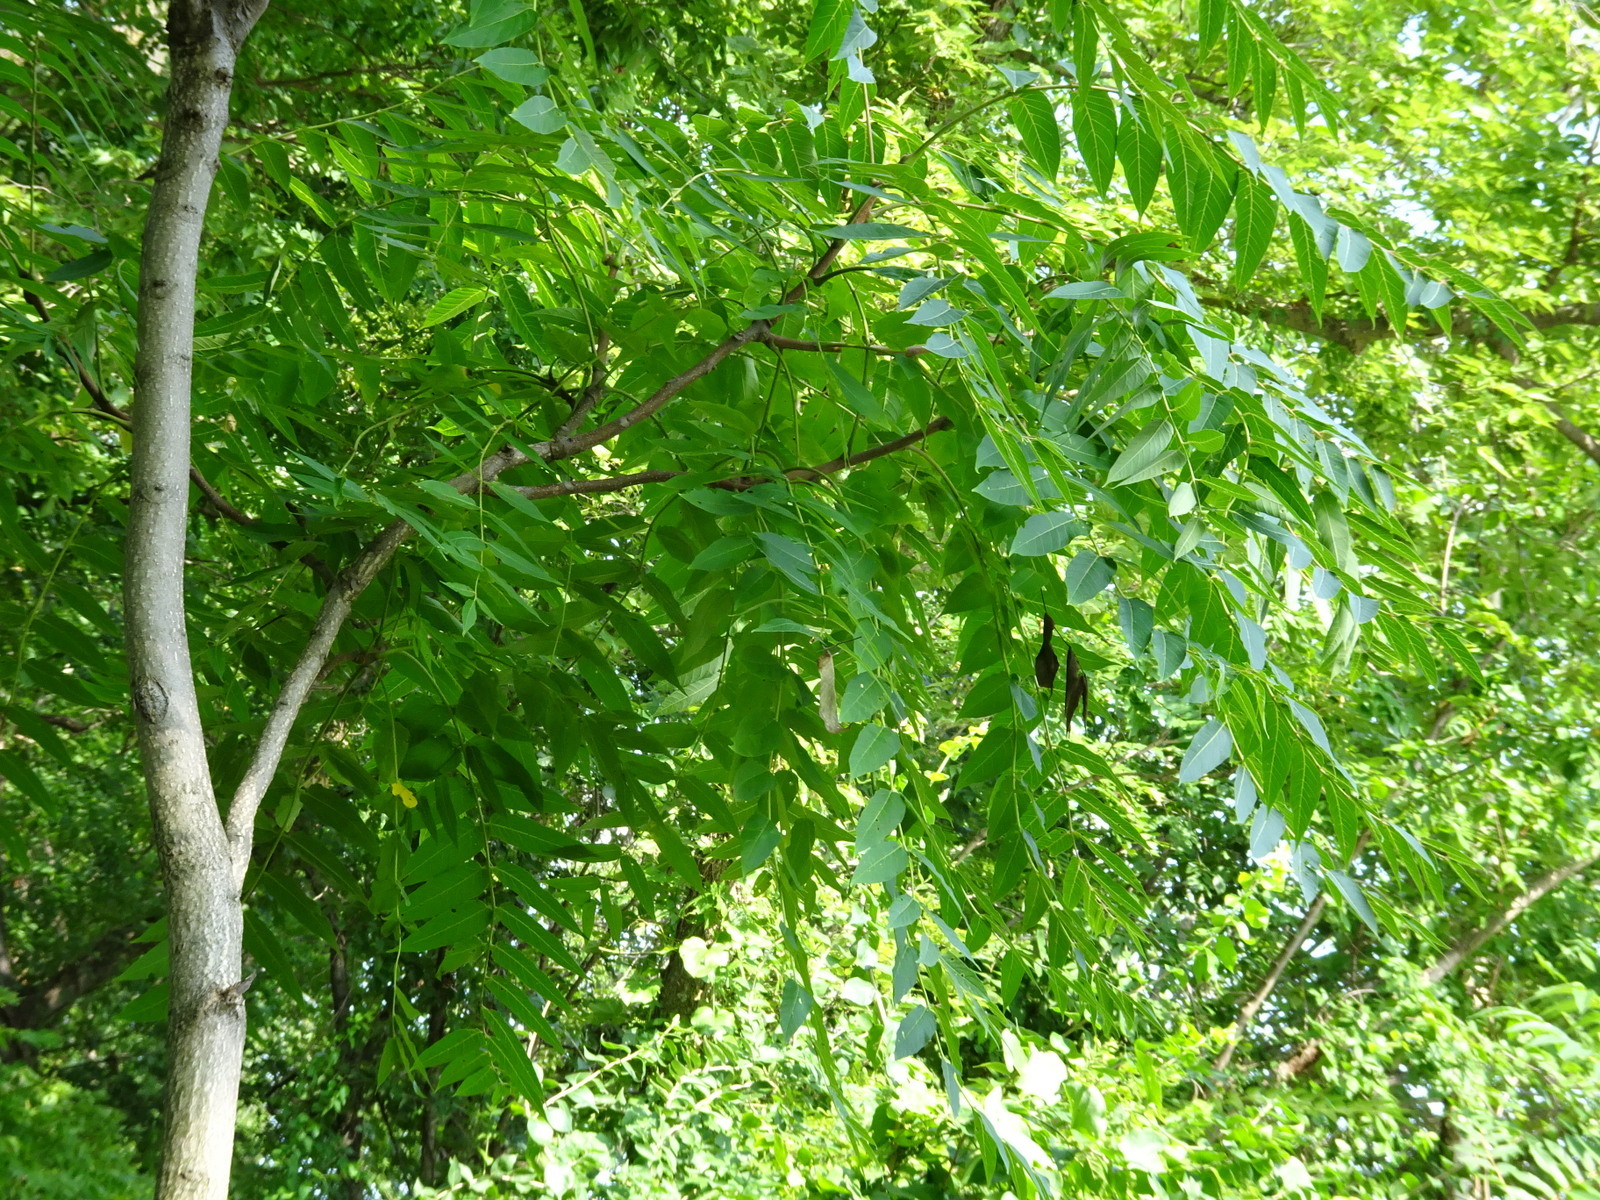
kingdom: Plantae
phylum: Tracheophyta
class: Magnoliopsida
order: Sapindales
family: Simaroubaceae
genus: Ailanthus
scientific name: Ailanthus altissima
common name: Tree-of-heaven
